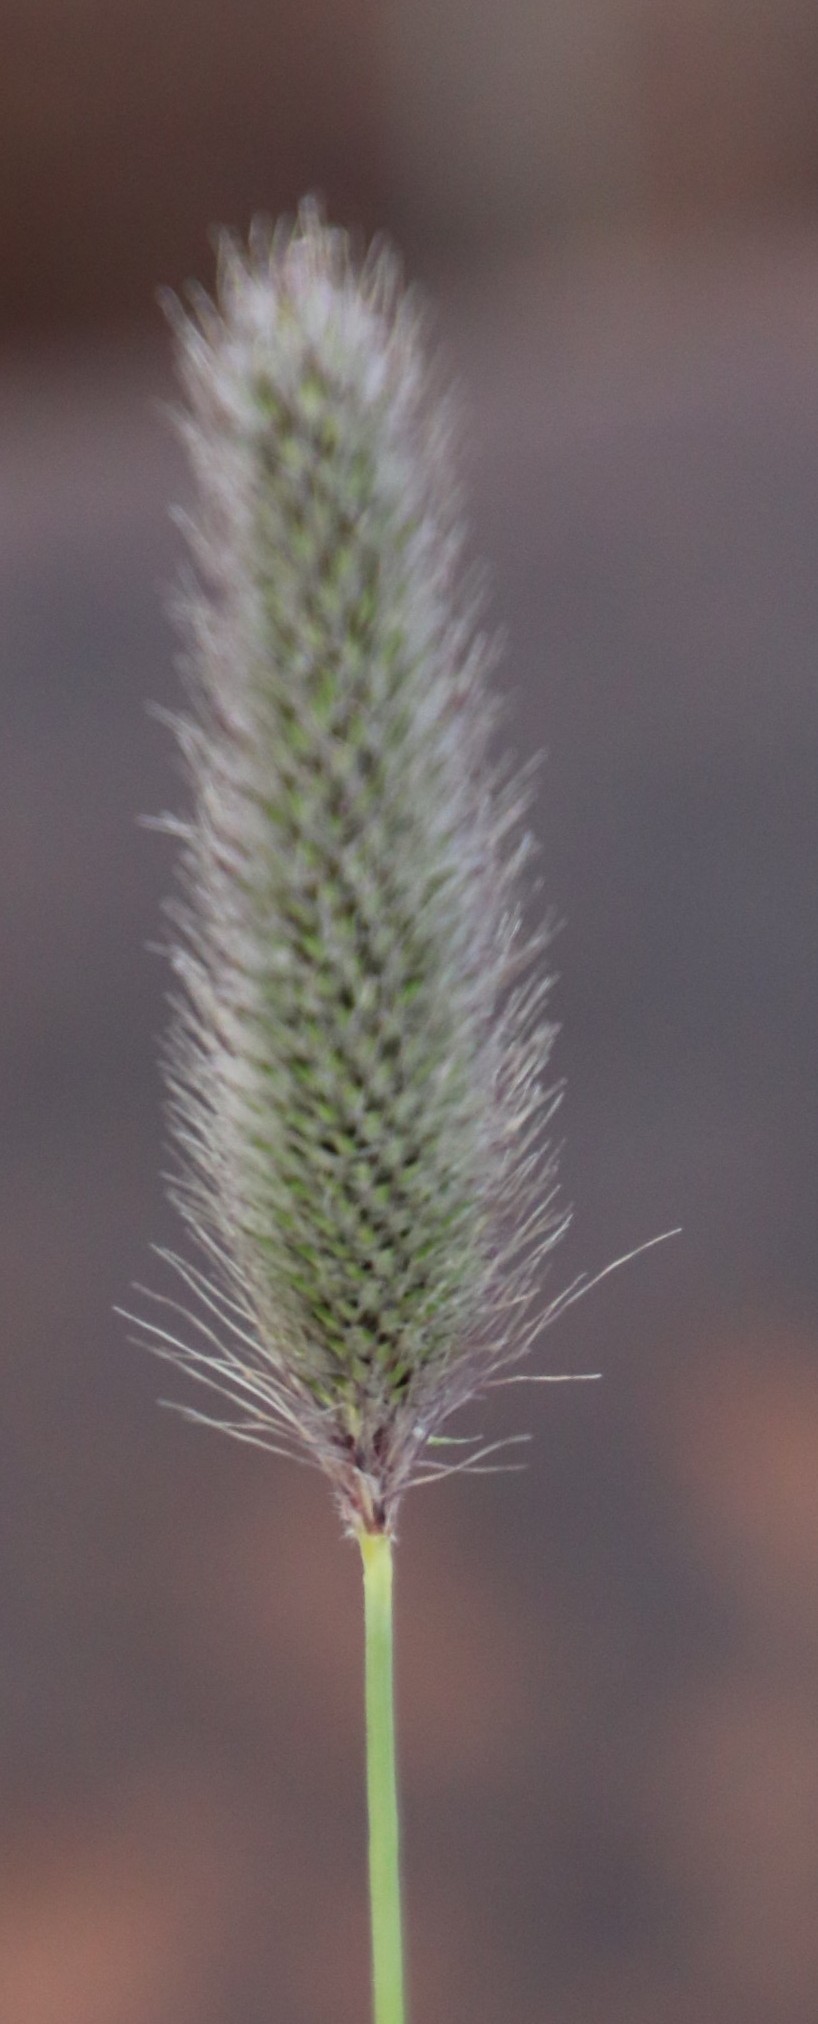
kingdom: Plantae
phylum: Tracheophyta
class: Liliopsida
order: Poales
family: Poaceae
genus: Fingerhuthia
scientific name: Fingerhuthia africana
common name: Zulu fescue
